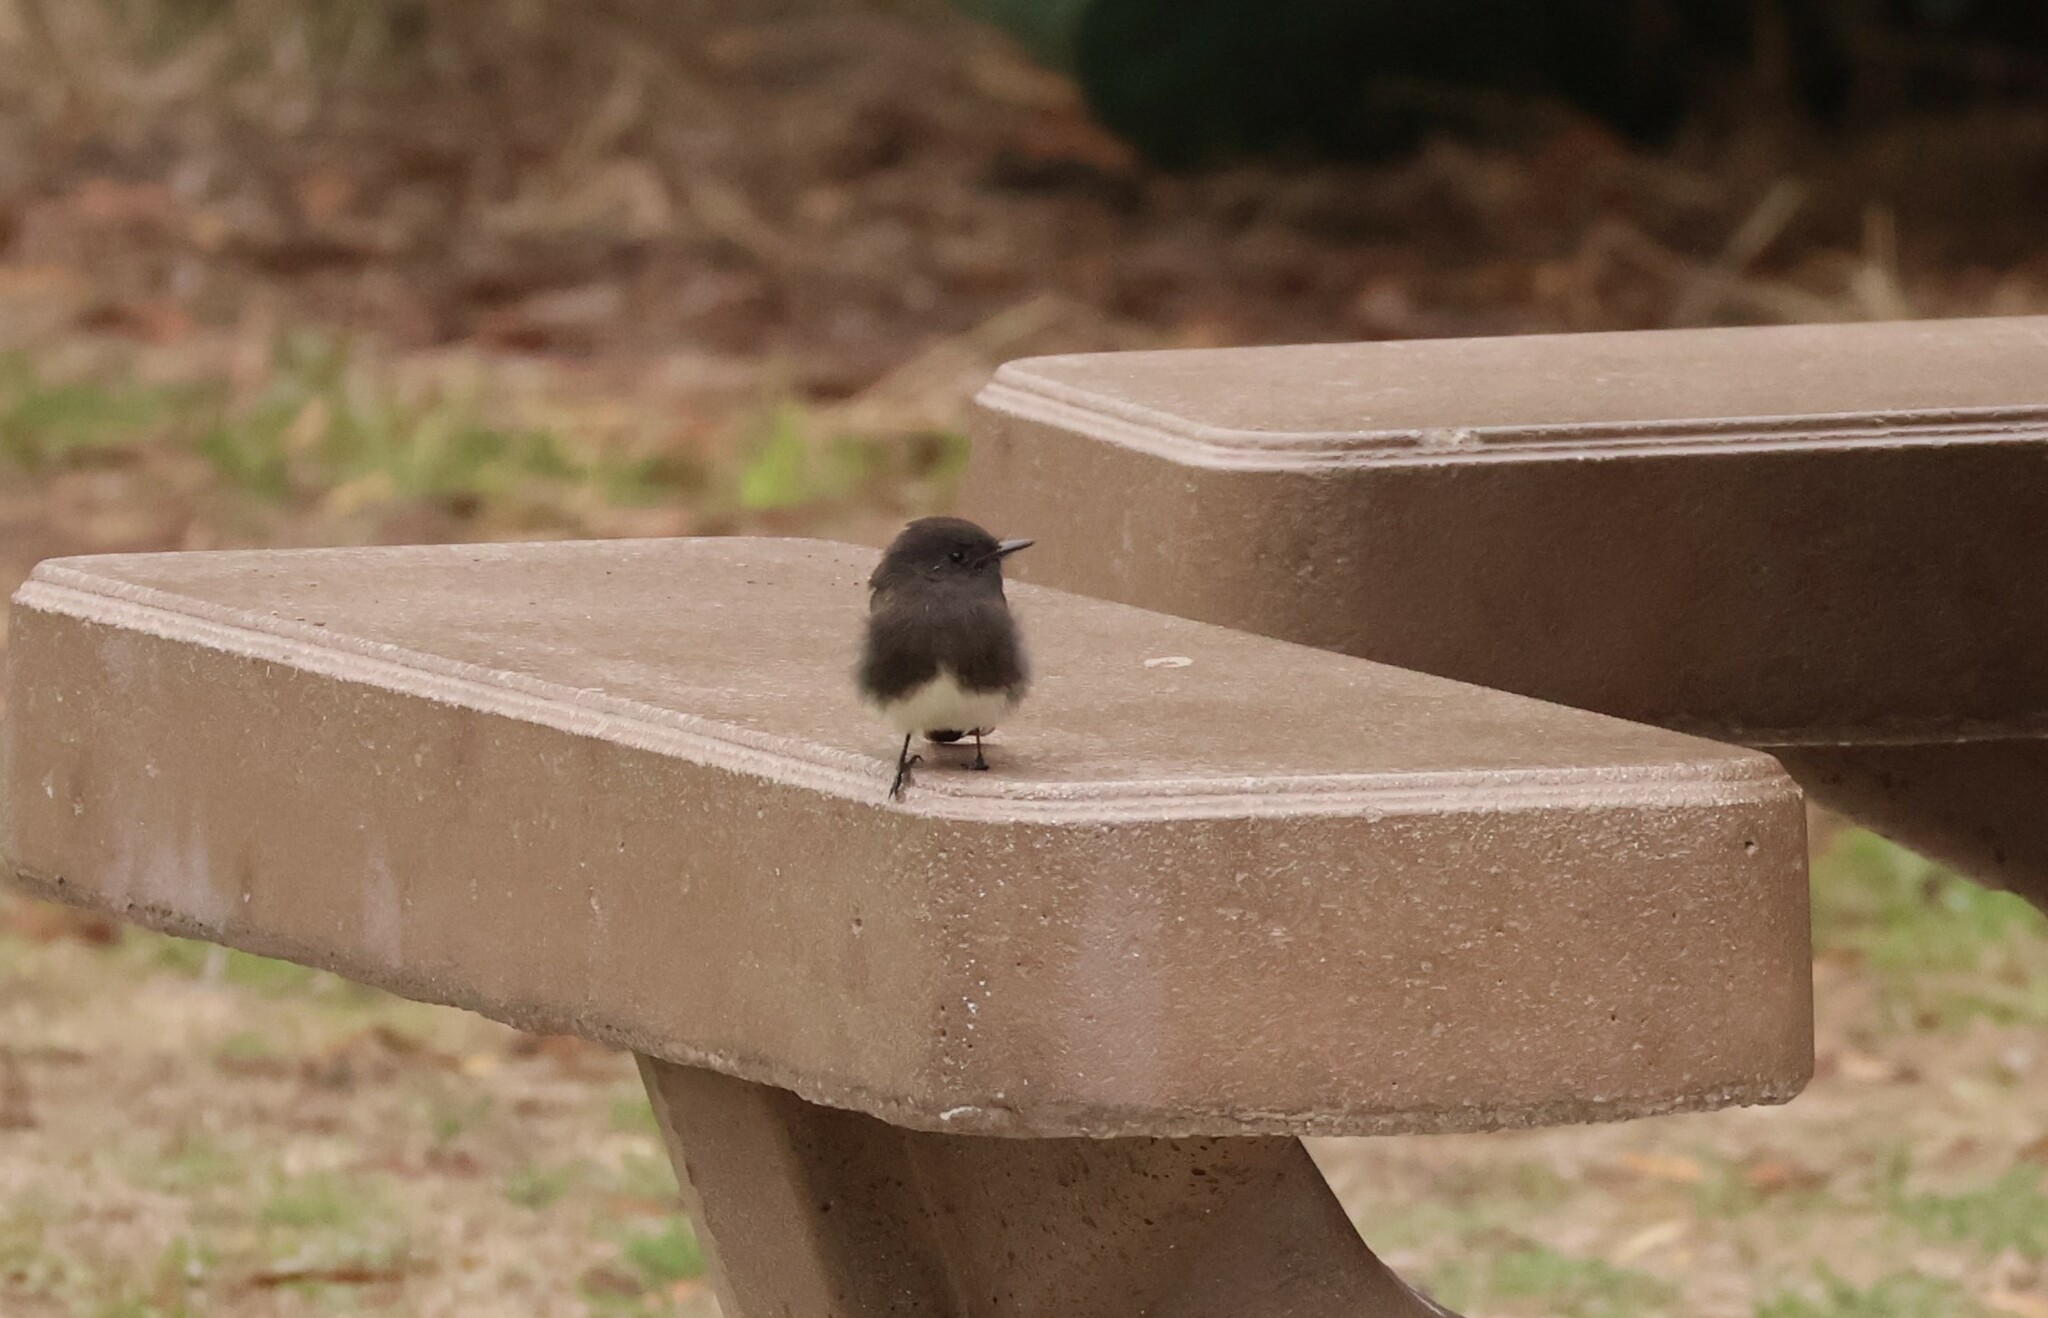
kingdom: Animalia
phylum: Chordata
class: Aves
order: Passeriformes
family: Tyrannidae
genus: Sayornis
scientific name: Sayornis nigricans
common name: Black phoebe
